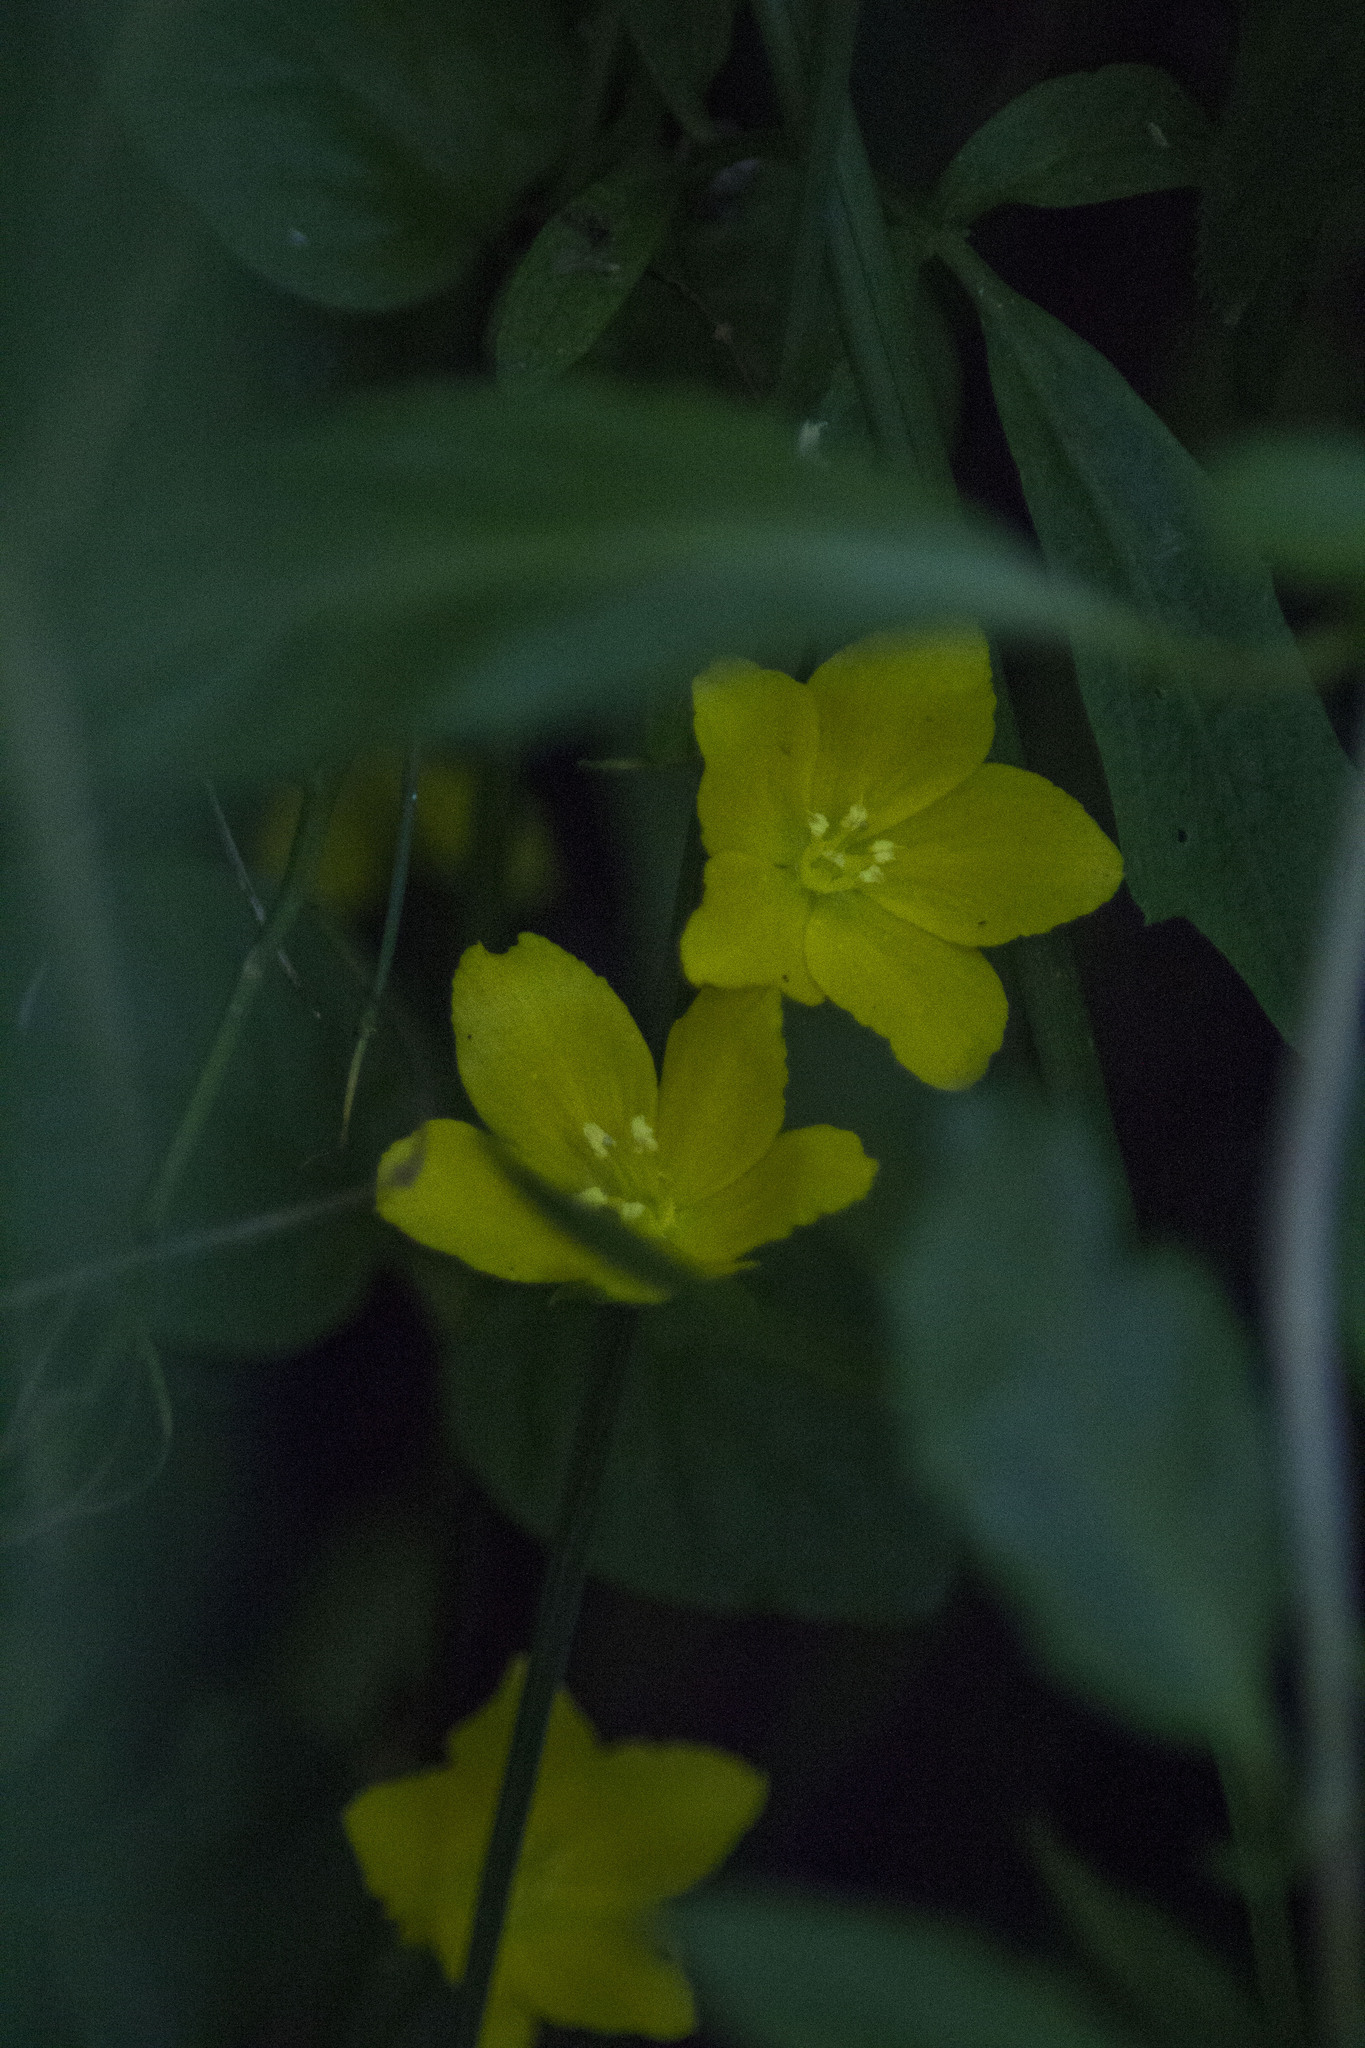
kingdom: Plantae
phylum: Tracheophyta
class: Magnoliopsida
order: Ericales
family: Primulaceae
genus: Lysimachia
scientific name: Lysimachia nummularia
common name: Moneywort
